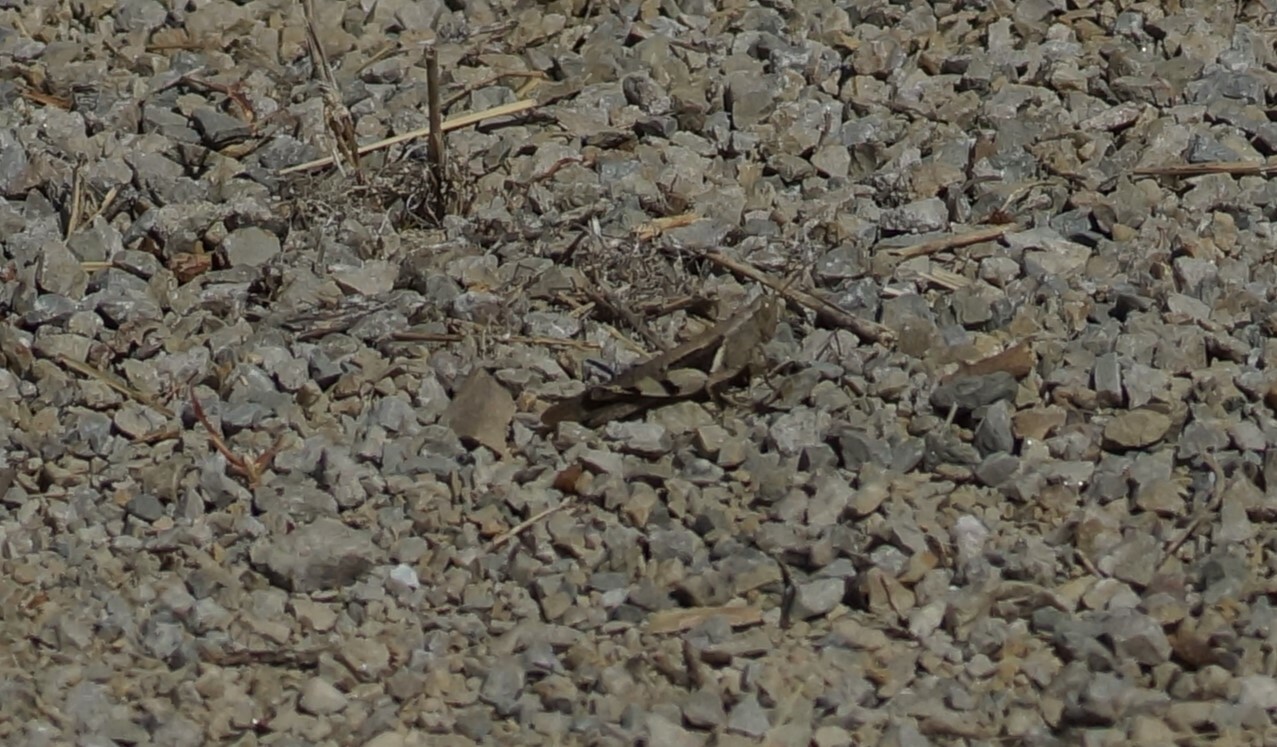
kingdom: Animalia
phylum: Arthropoda
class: Insecta
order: Orthoptera
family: Acrididae
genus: Stenocatantops
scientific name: Stenocatantops angustifrons
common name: Common tropical sharptail
